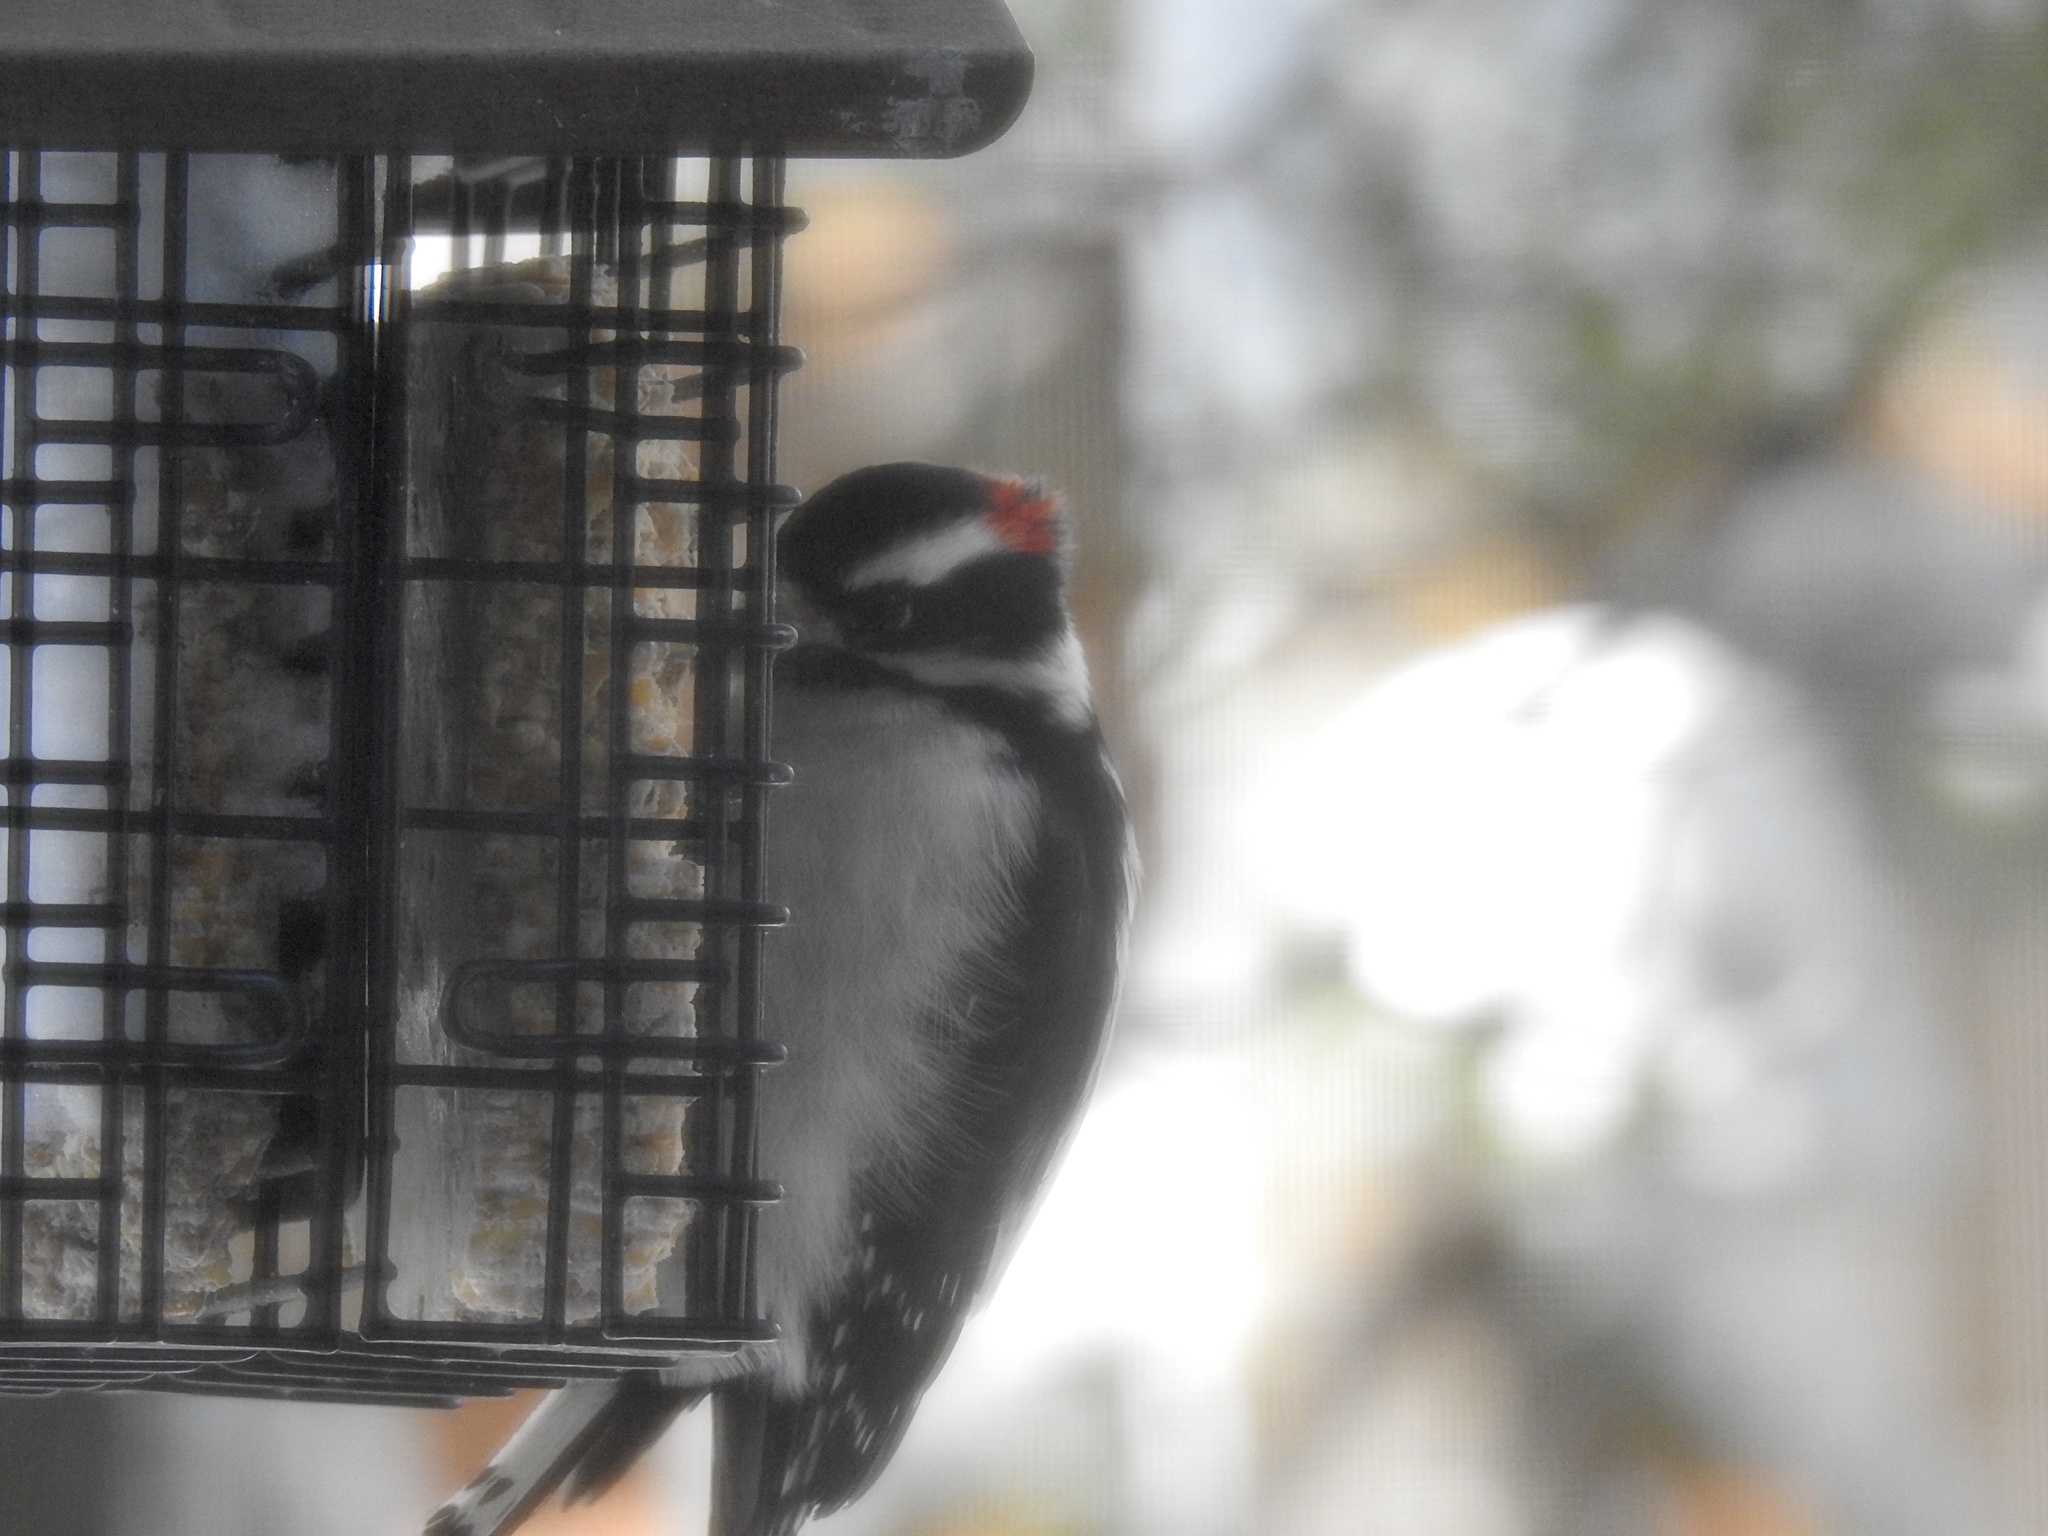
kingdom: Animalia
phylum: Chordata
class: Aves
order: Piciformes
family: Picidae
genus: Dryobates
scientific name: Dryobates pubescens
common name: Downy woodpecker
